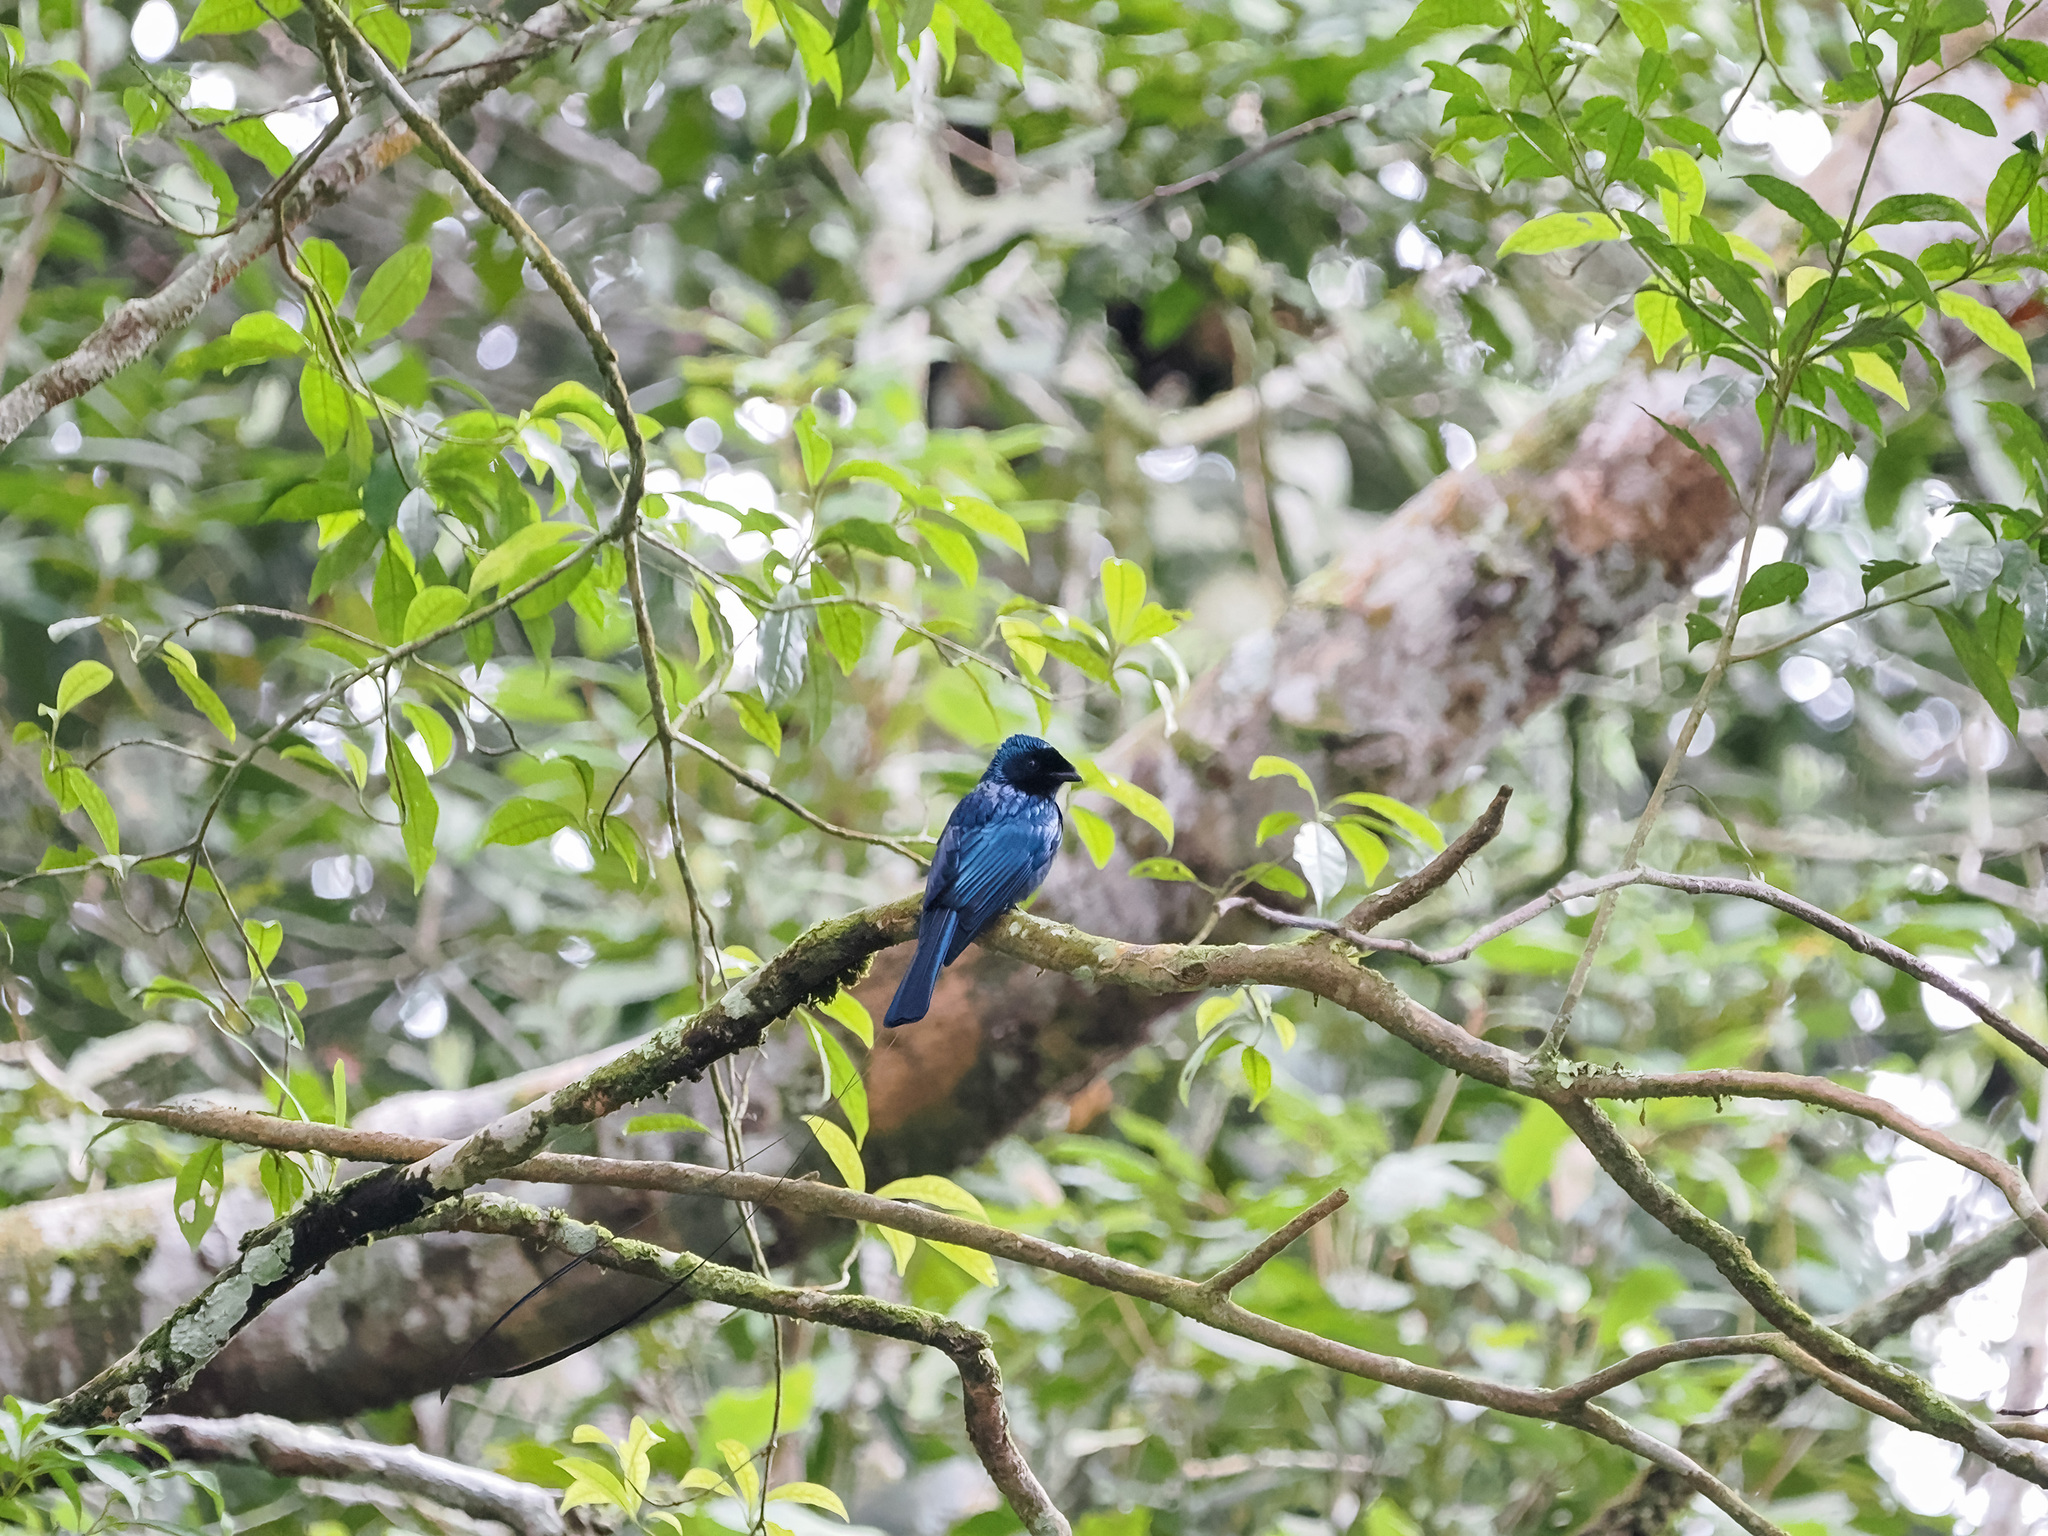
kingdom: Animalia
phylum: Chordata
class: Aves
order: Passeriformes
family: Dicruridae
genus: Dicrurus
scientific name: Dicrurus remifer
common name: Lesser racket-tailed drongo
